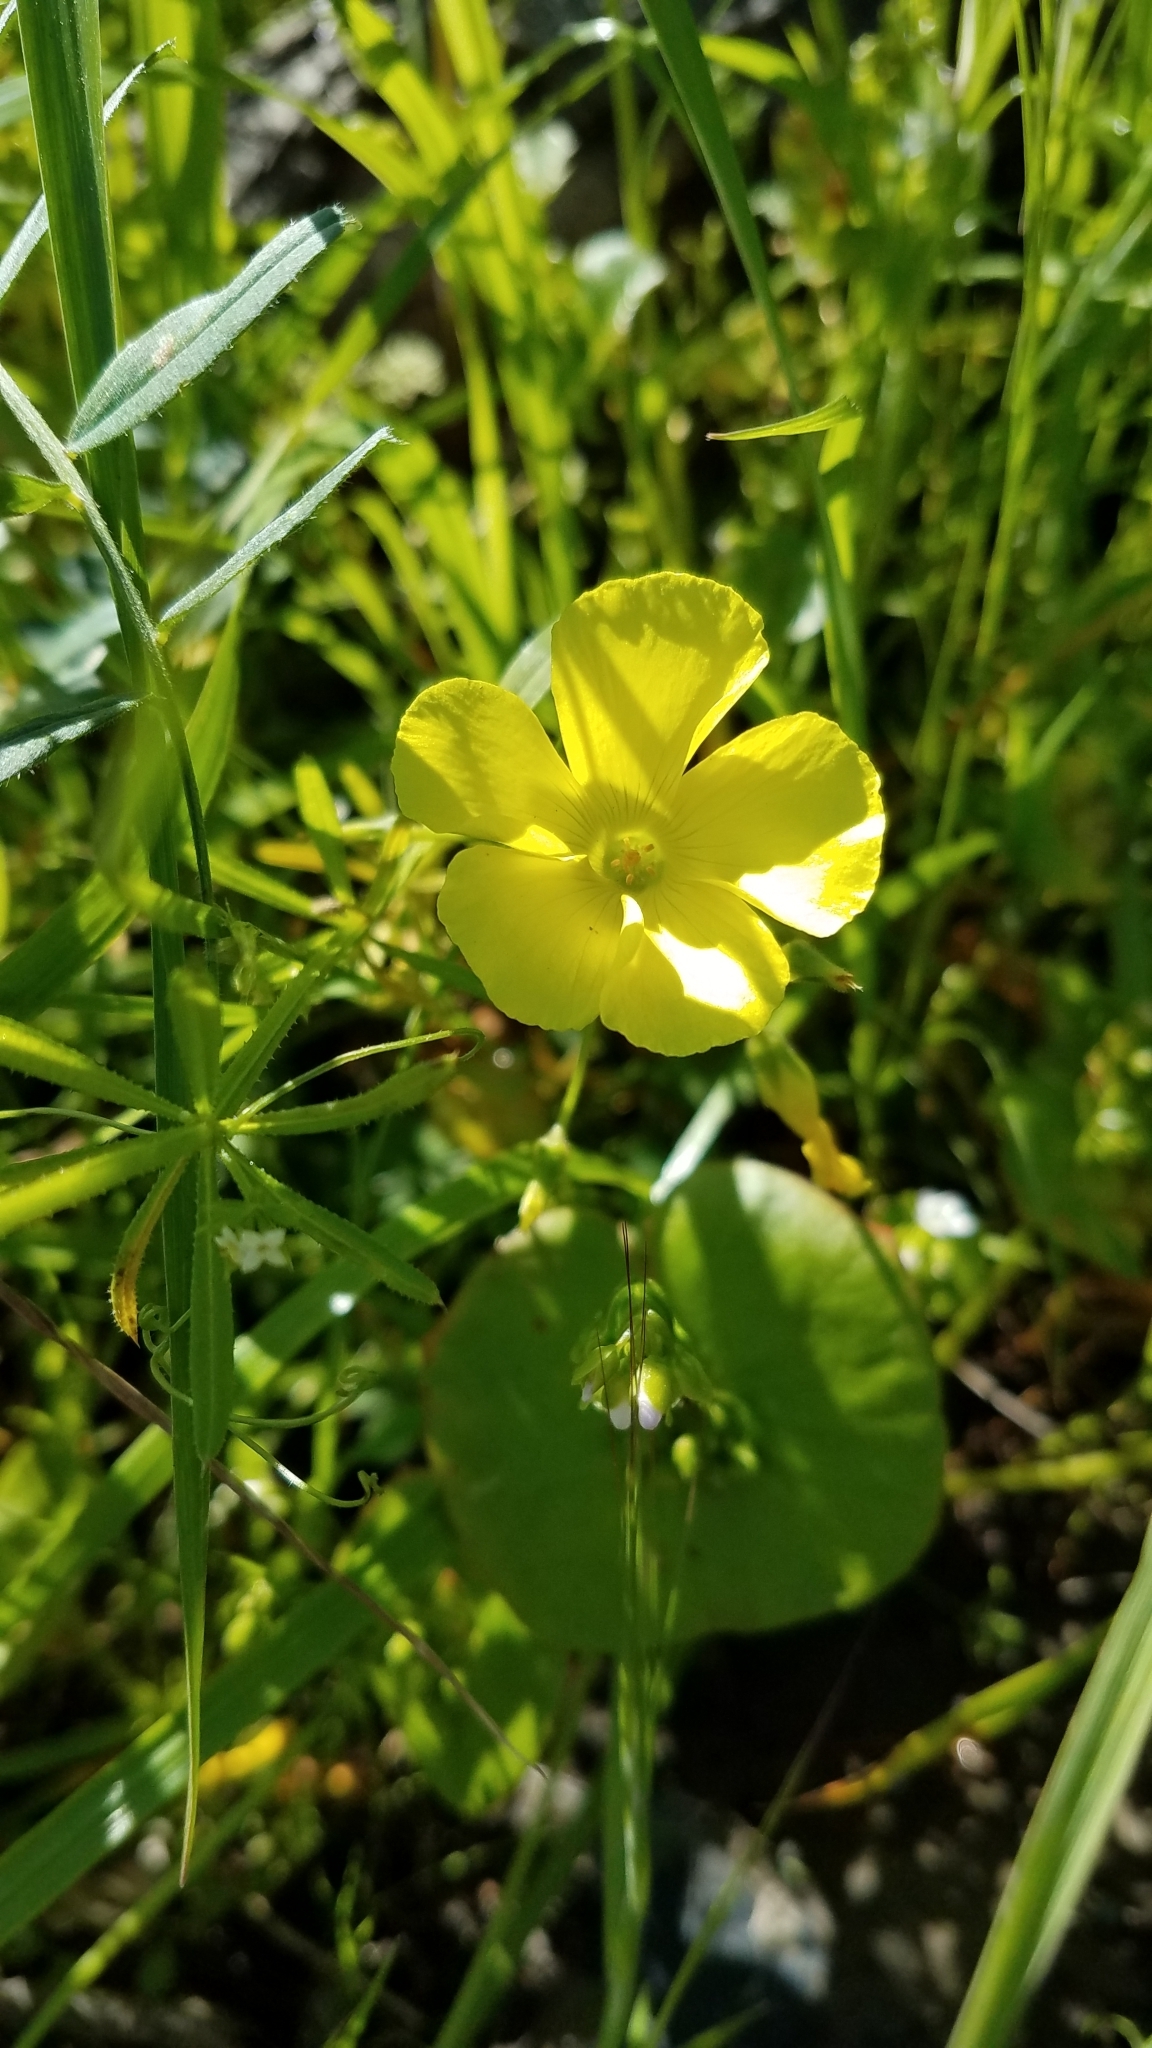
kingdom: Plantae
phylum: Tracheophyta
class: Magnoliopsida
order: Oxalidales
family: Oxalidaceae
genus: Oxalis
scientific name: Oxalis pes-caprae
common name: Bermuda-buttercup
